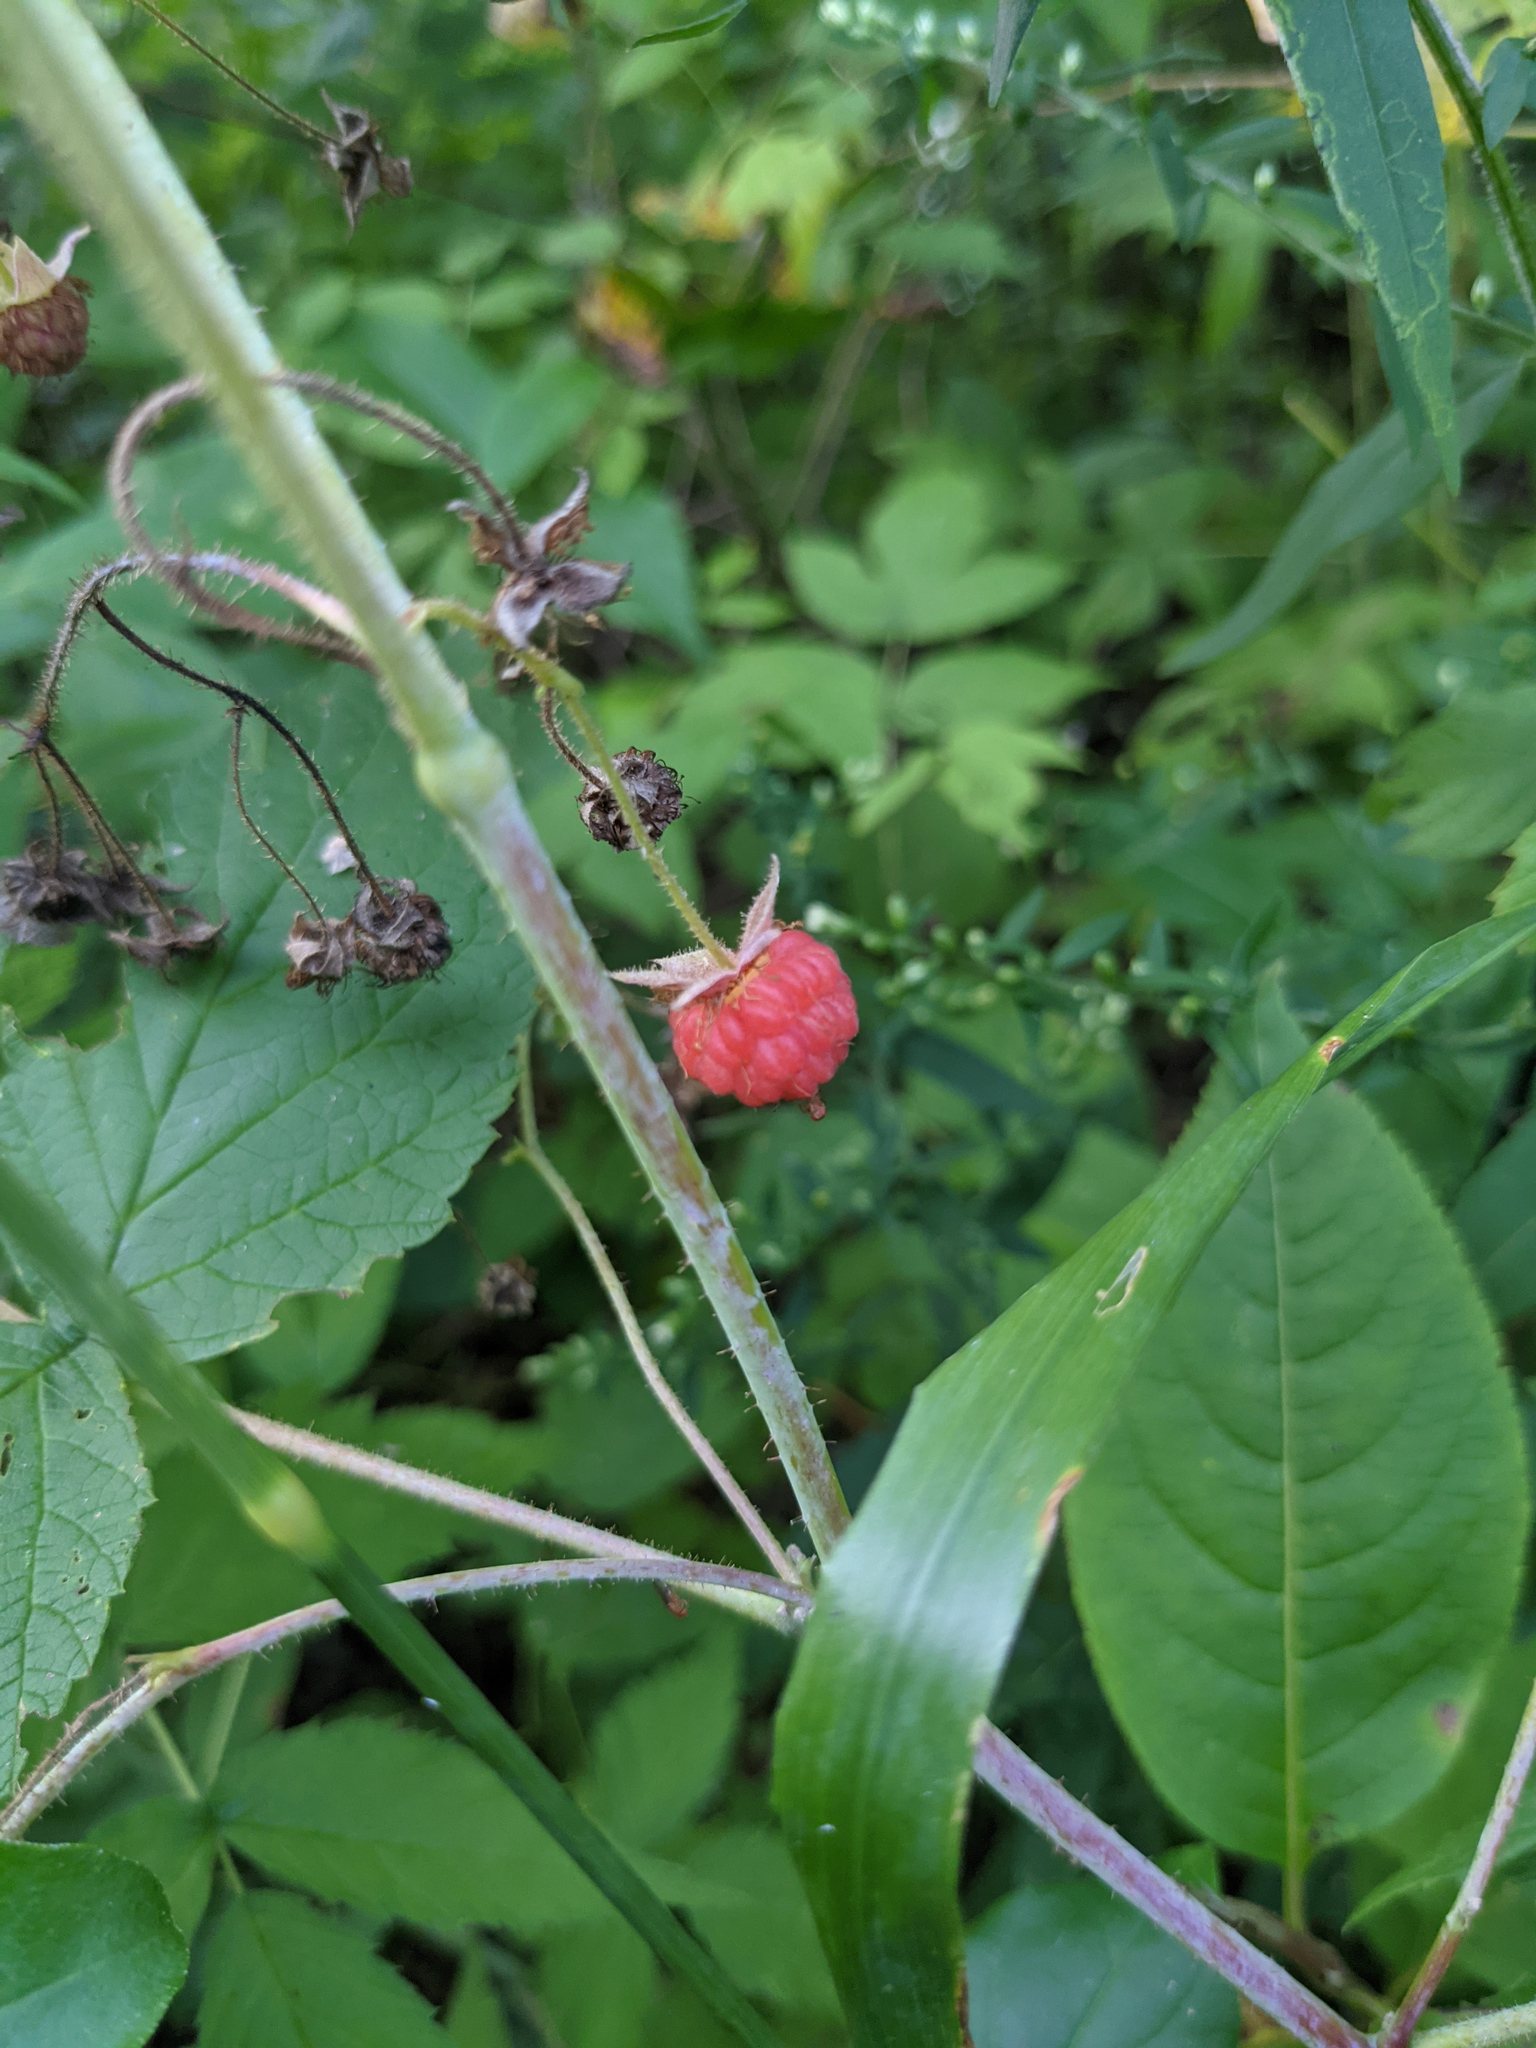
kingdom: Plantae
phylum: Tracheophyta
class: Magnoliopsida
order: Rosales
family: Rosaceae
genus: Rubus
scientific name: Rubus idaeus
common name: Raspberry
